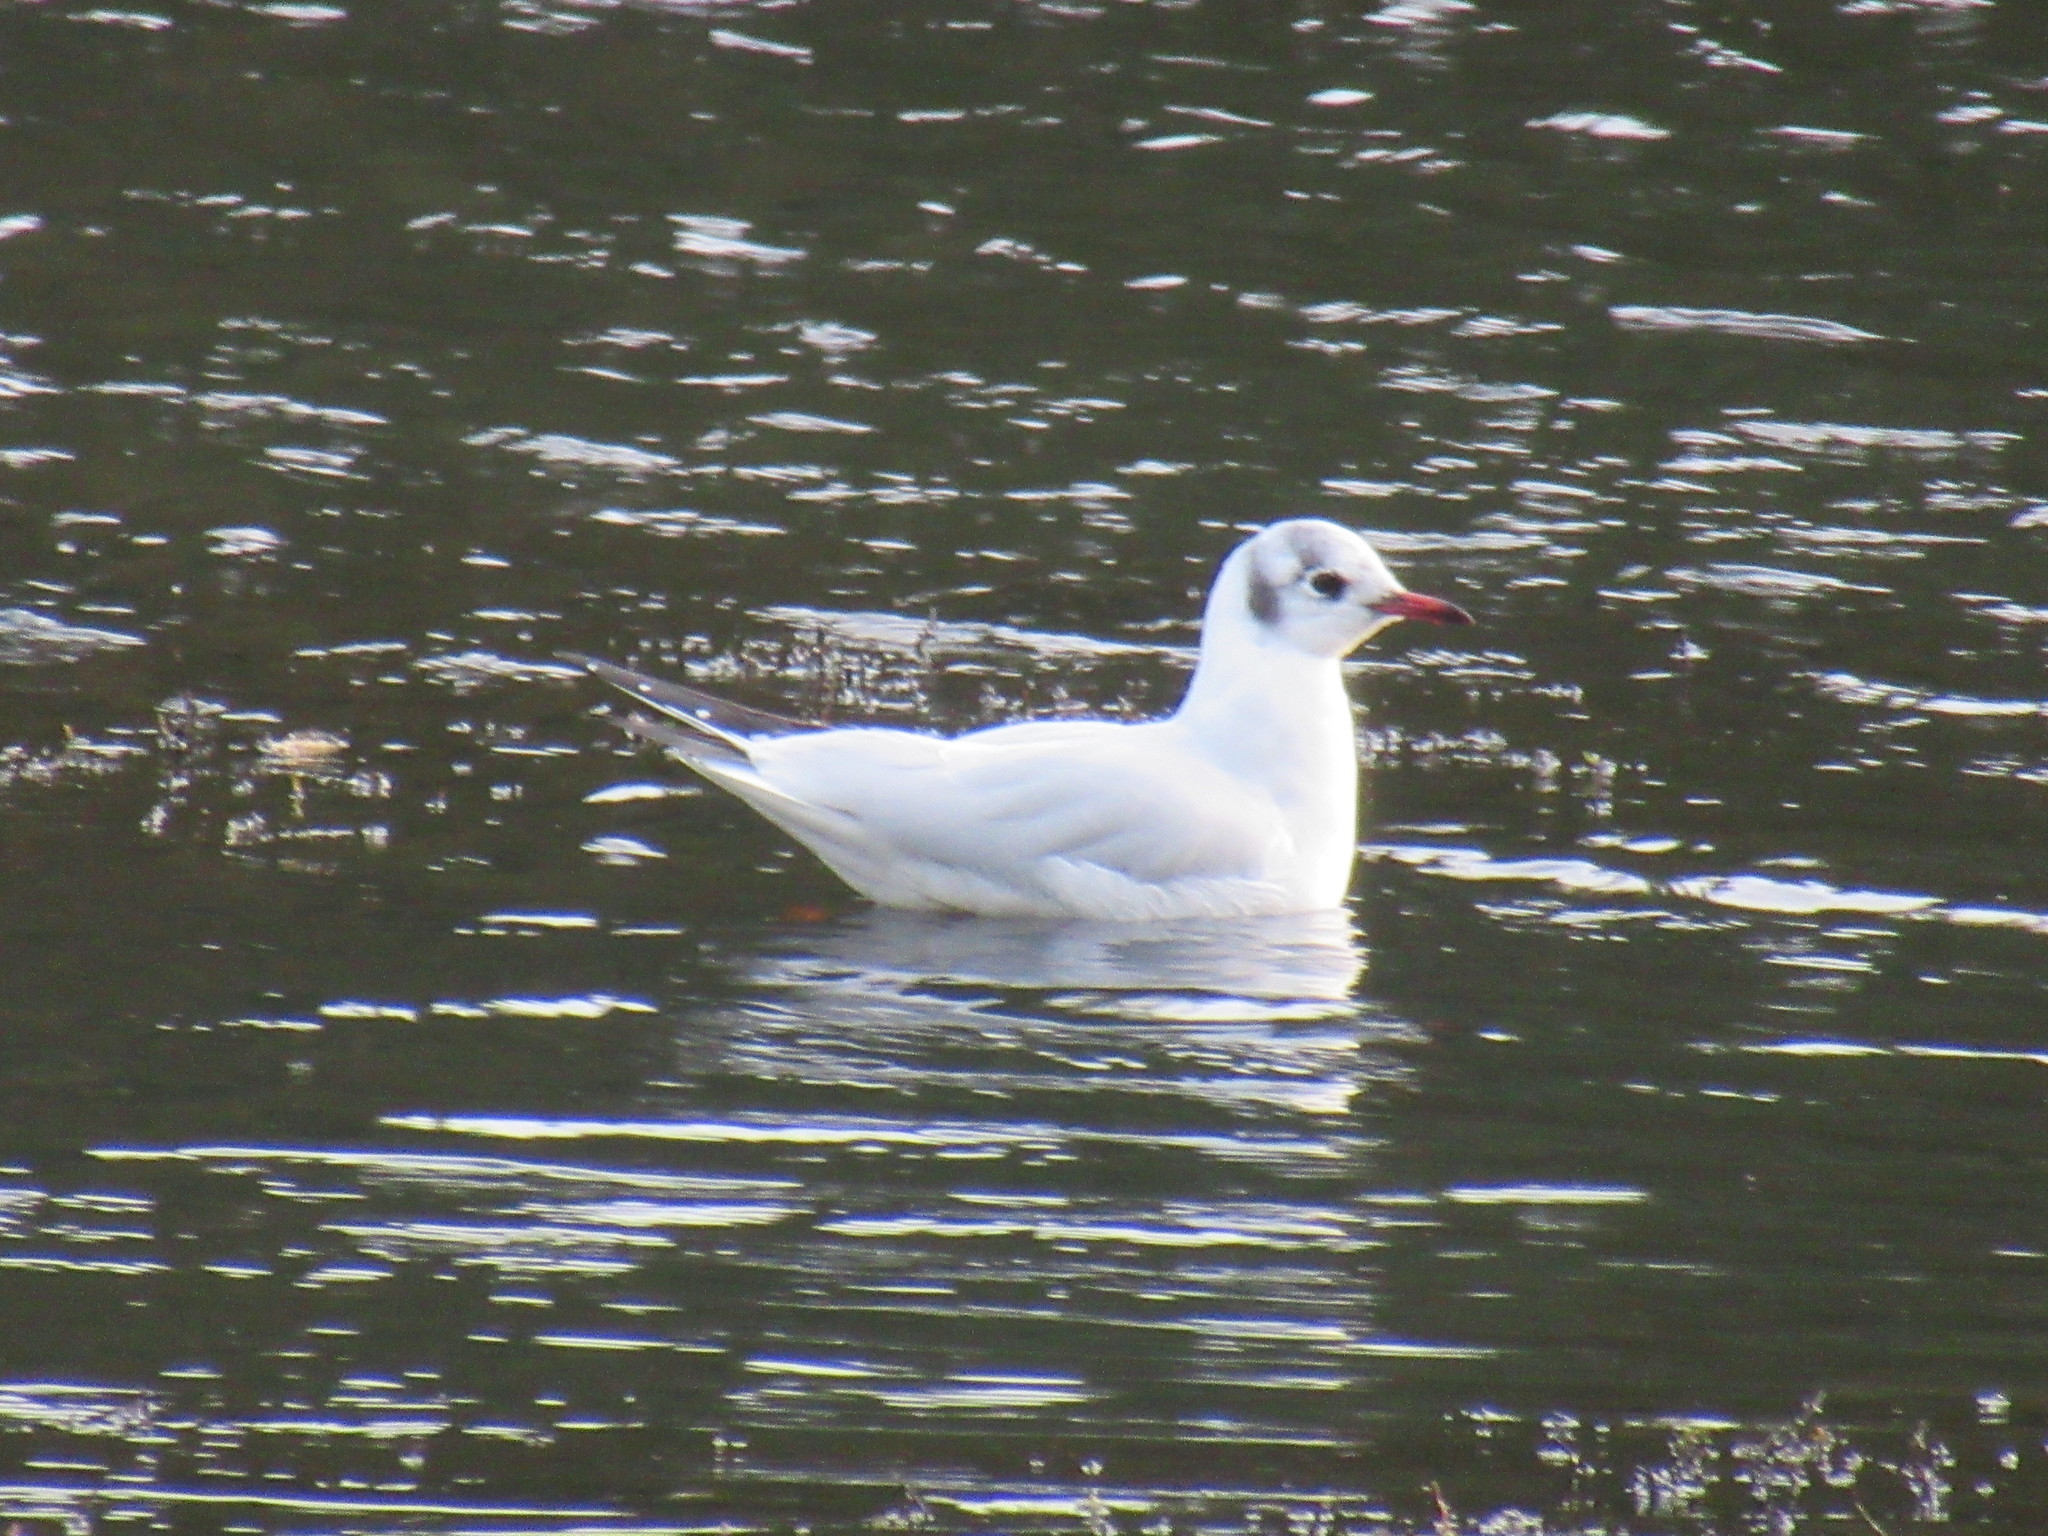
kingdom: Animalia
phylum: Chordata
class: Aves
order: Charadriiformes
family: Laridae
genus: Chroicocephalus
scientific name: Chroicocephalus ridibundus
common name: Black-headed gull
